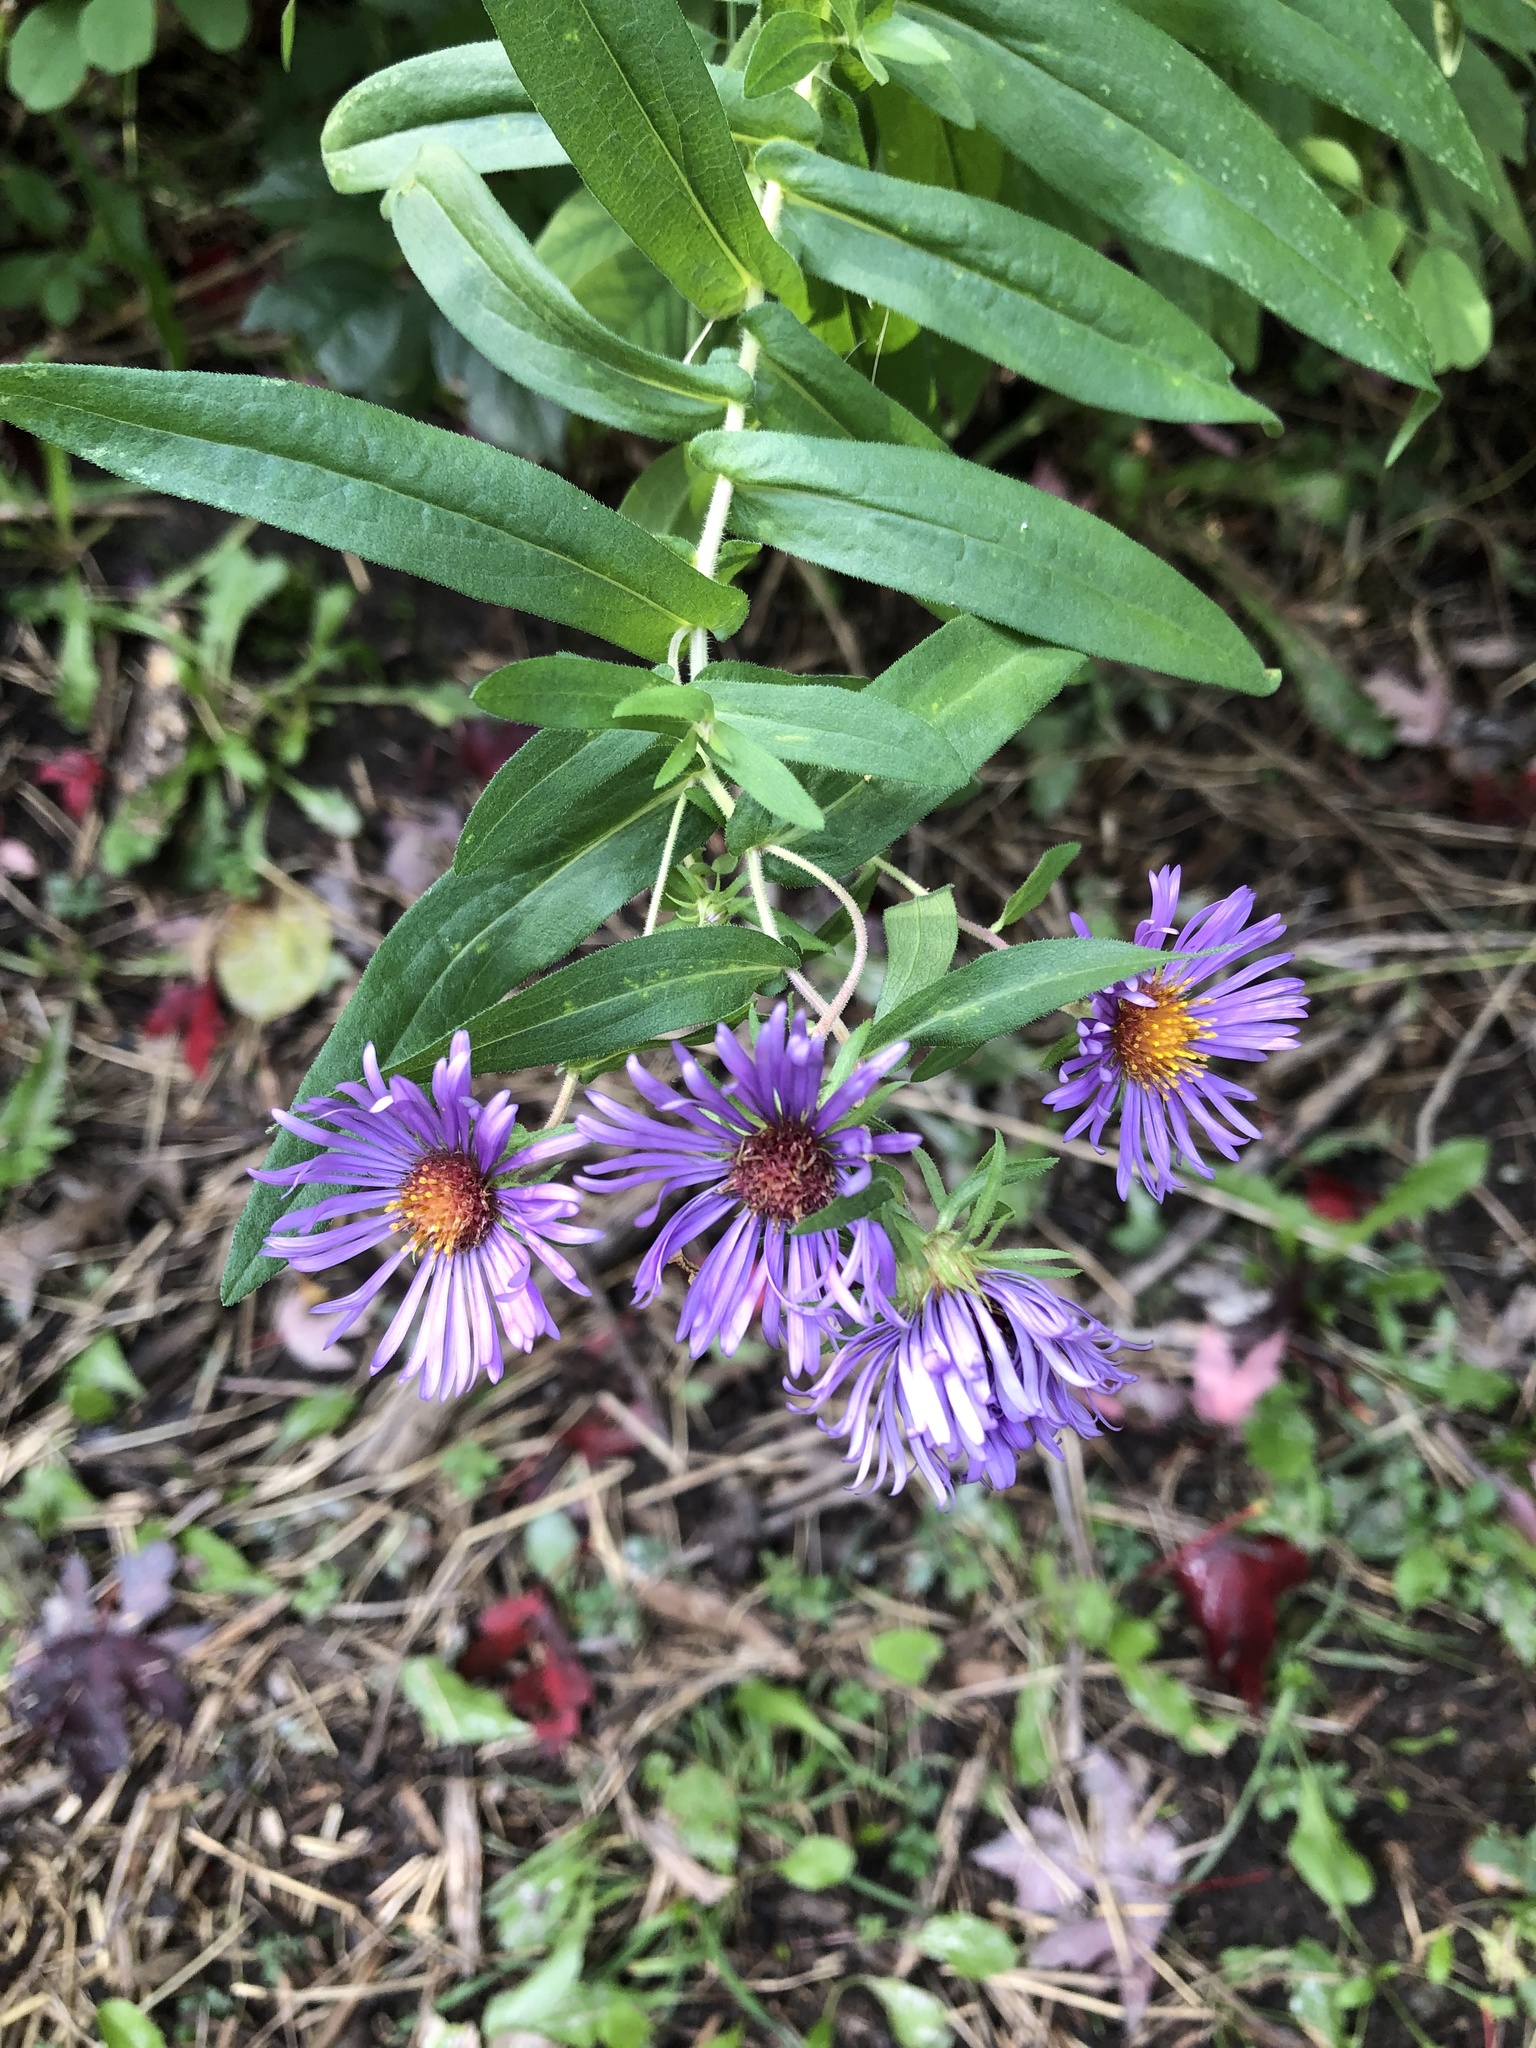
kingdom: Plantae
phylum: Tracheophyta
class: Magnoliopsida
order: Asterales
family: Asteraceae
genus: Symphyotrichum
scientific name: Symphyotrichum novae-angliae
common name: Michaelmas daisy
